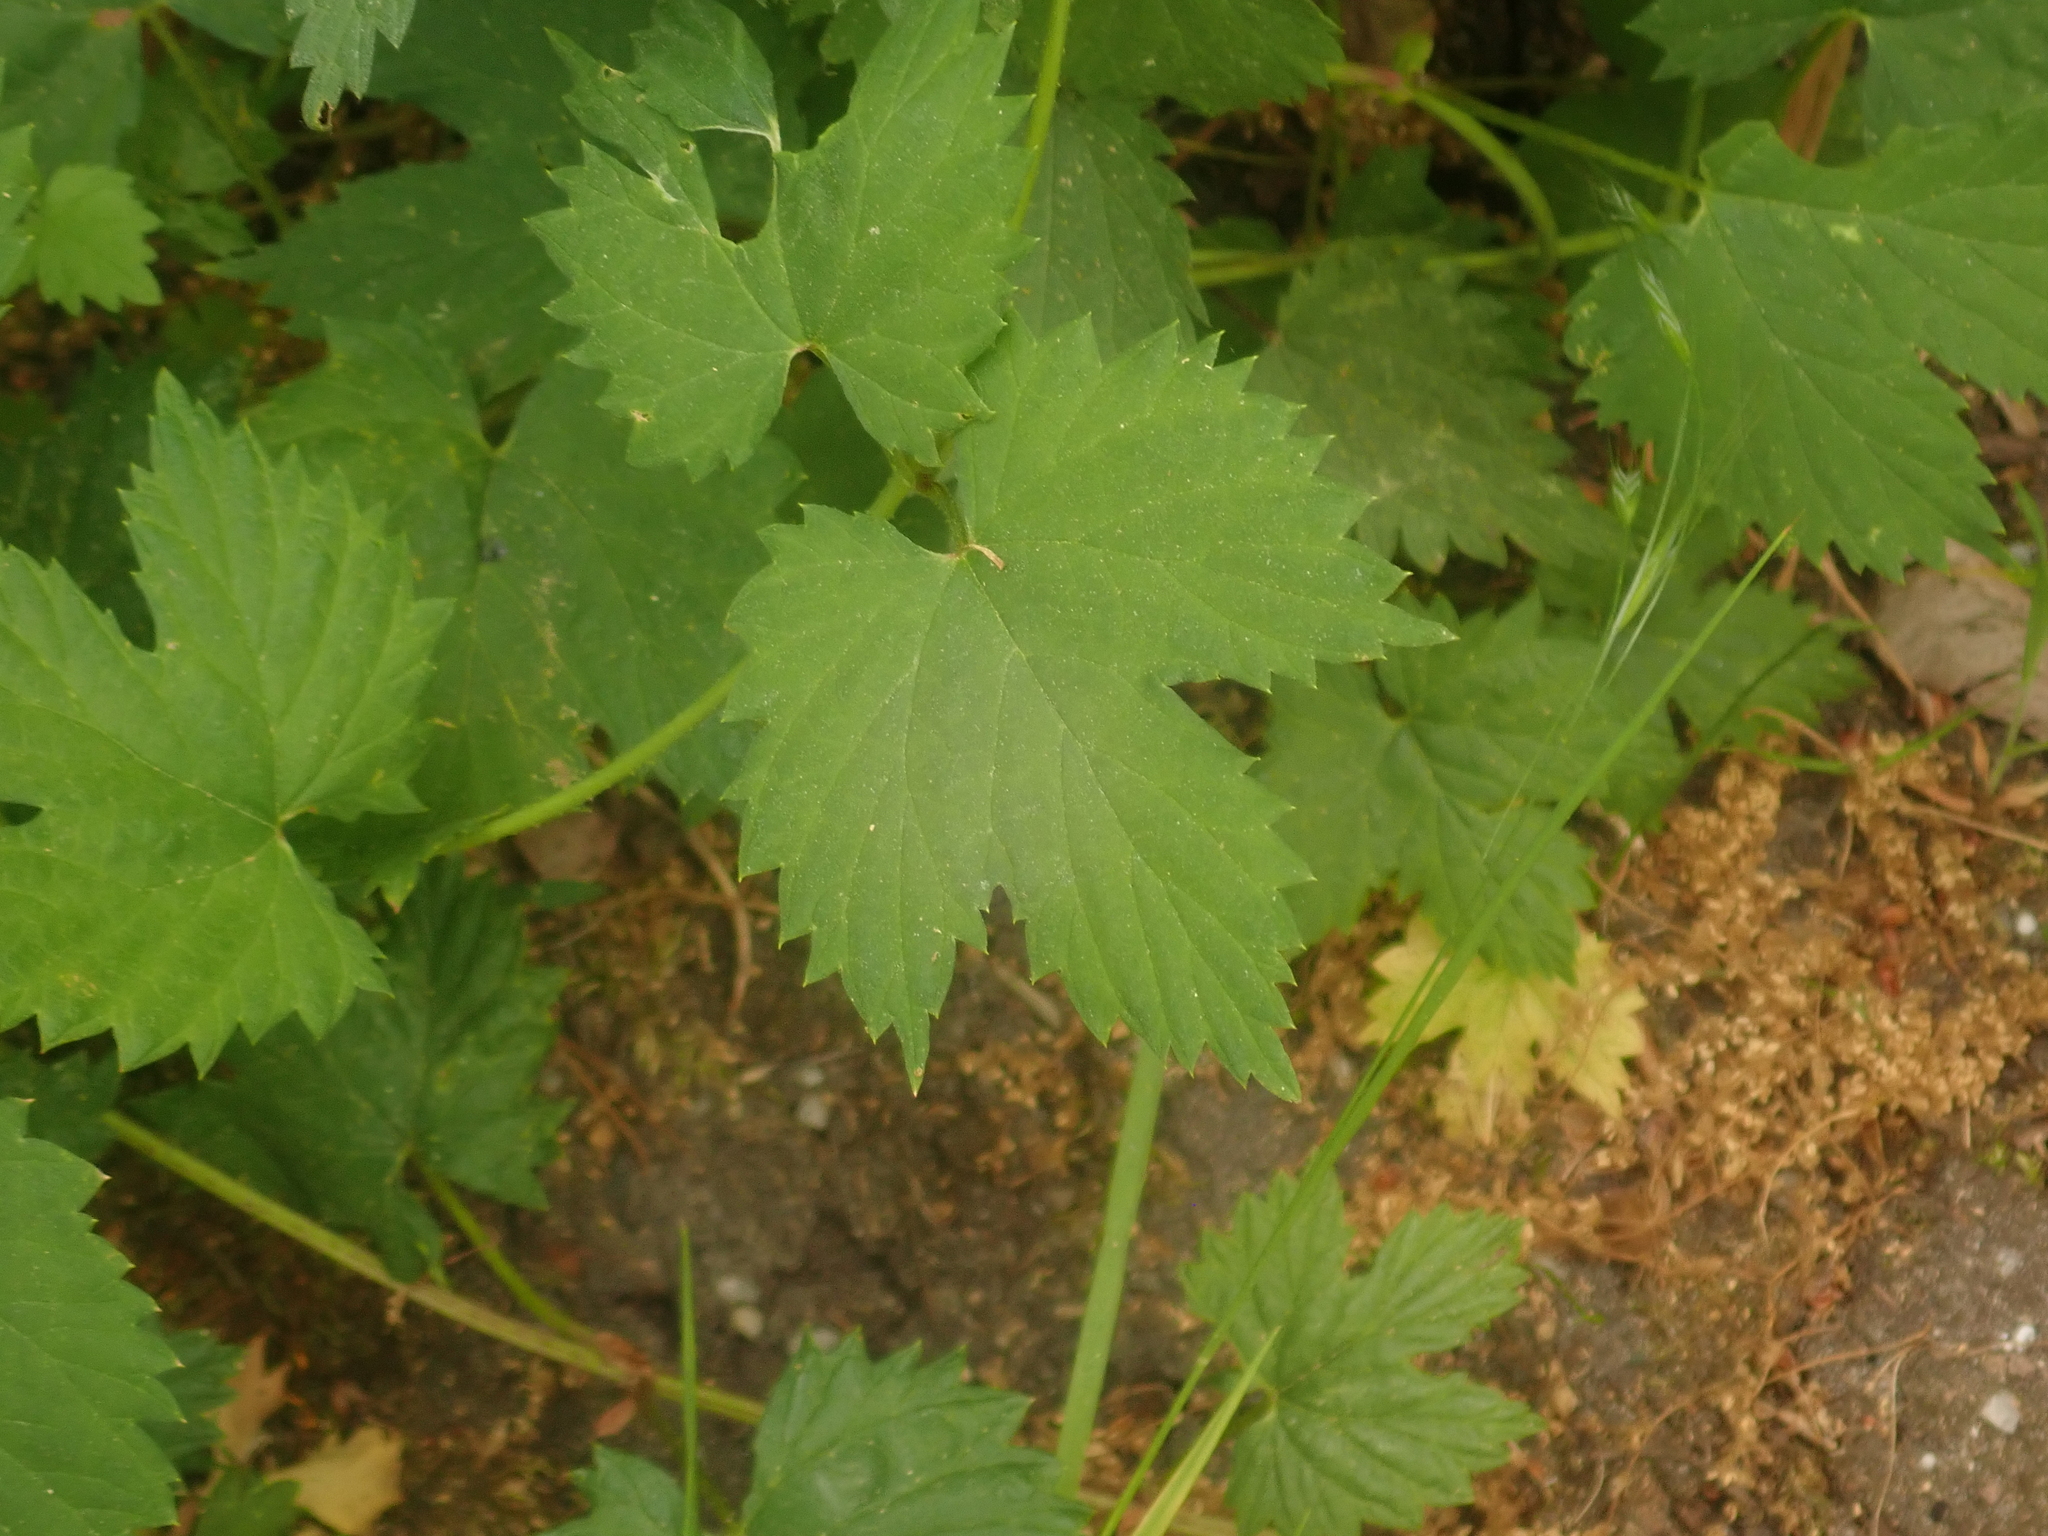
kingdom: Plantae
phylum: Tracheophyta
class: Magnoliopsida
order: Rosales
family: Cannabaceae
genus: Humulus
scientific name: Humulus lupulus
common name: Hop
